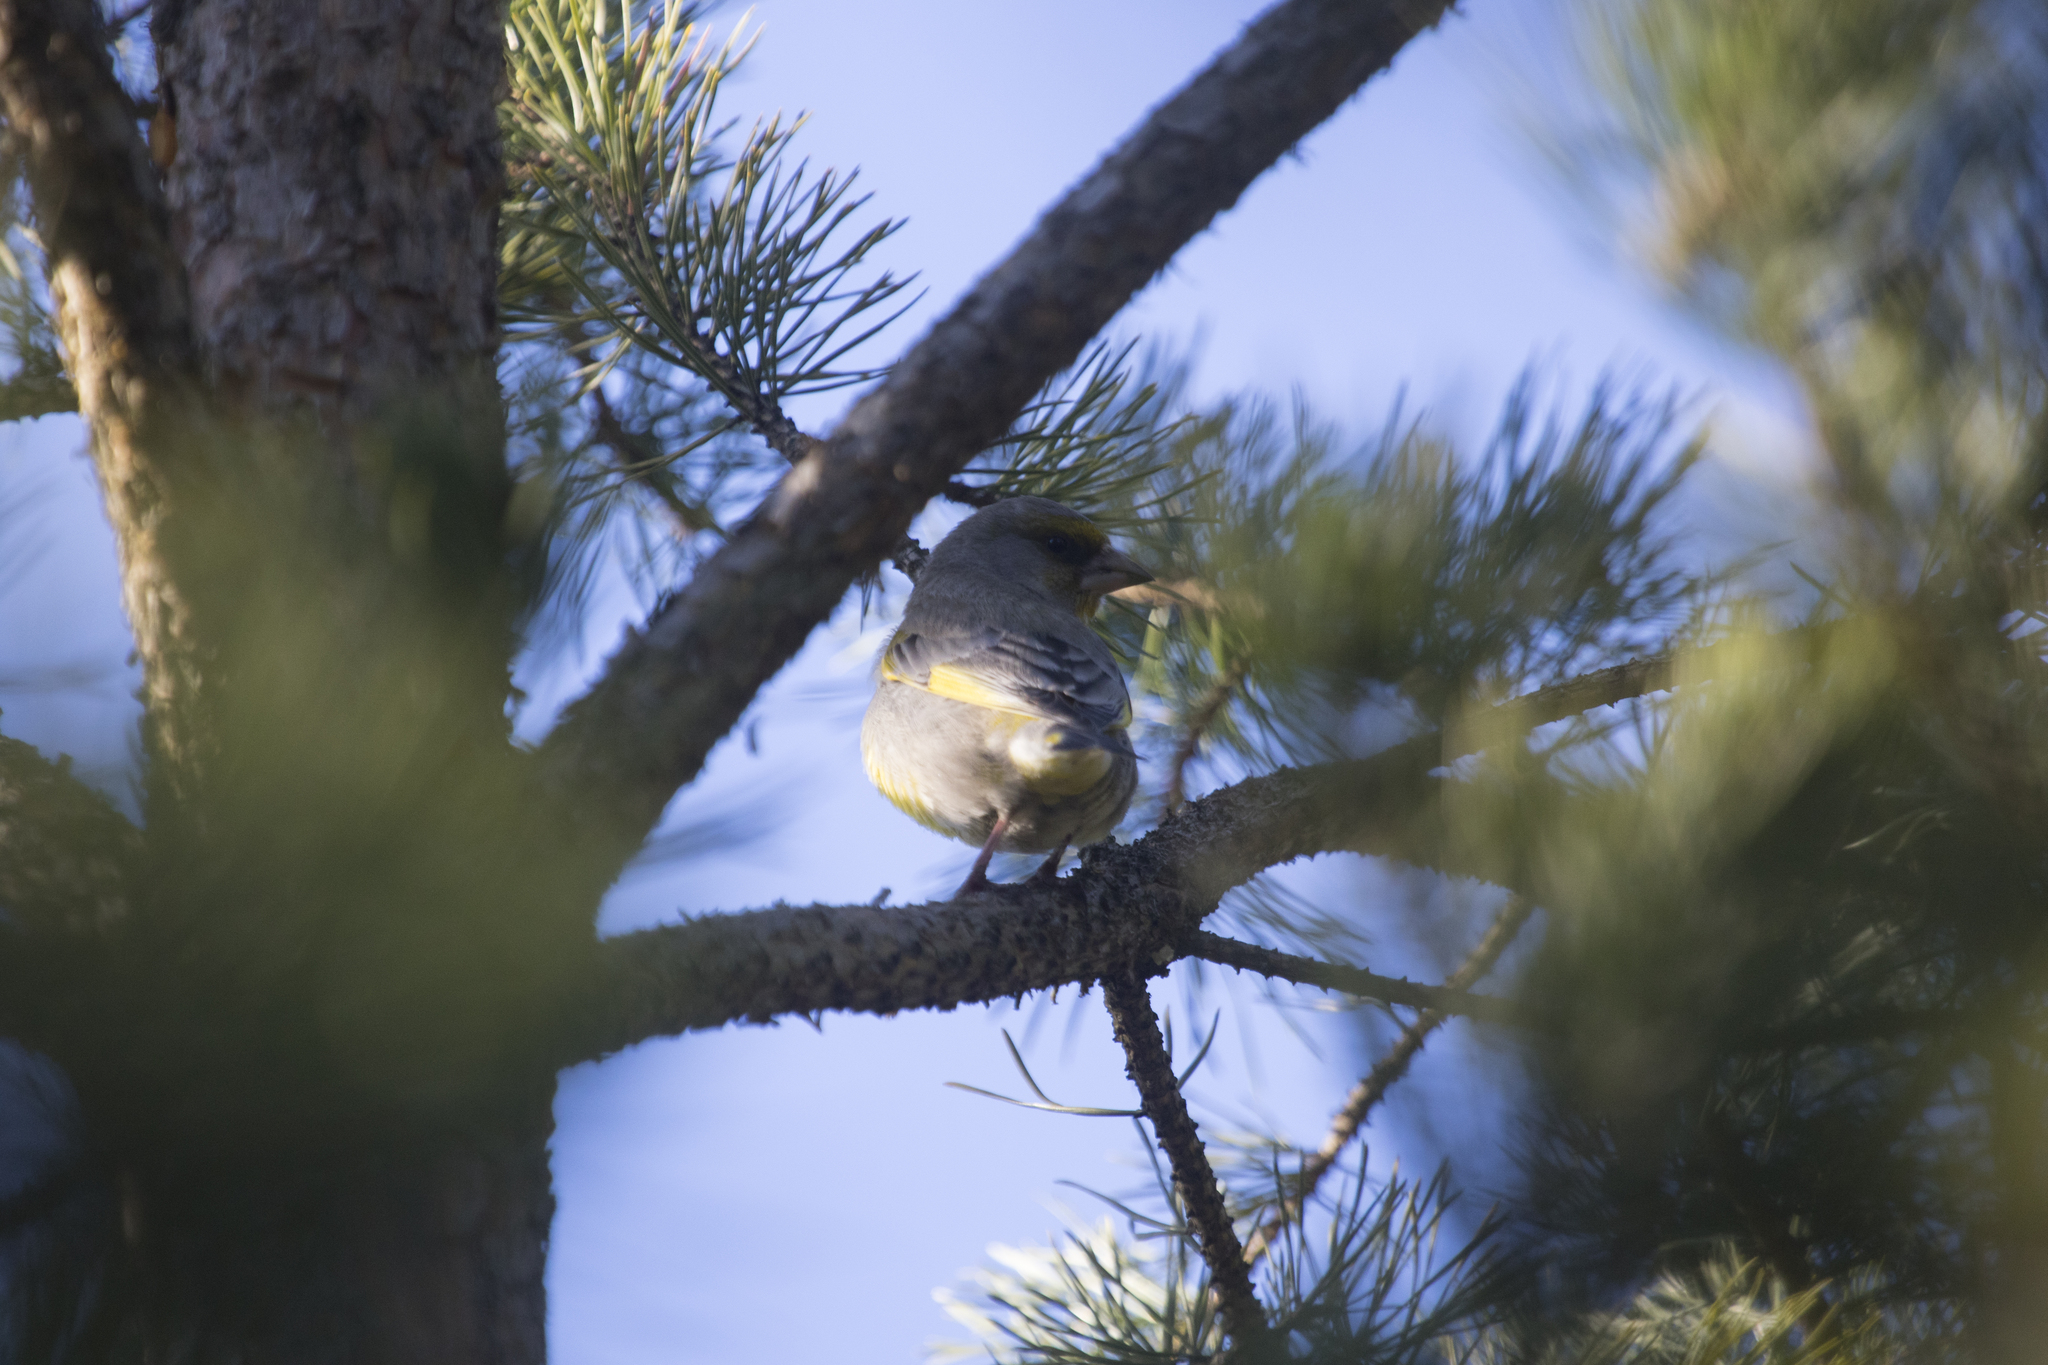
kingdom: Plantae
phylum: Tracheophyta
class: Liliopsida
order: Poales
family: Poaceae
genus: Chloris
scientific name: Chloris chloris
